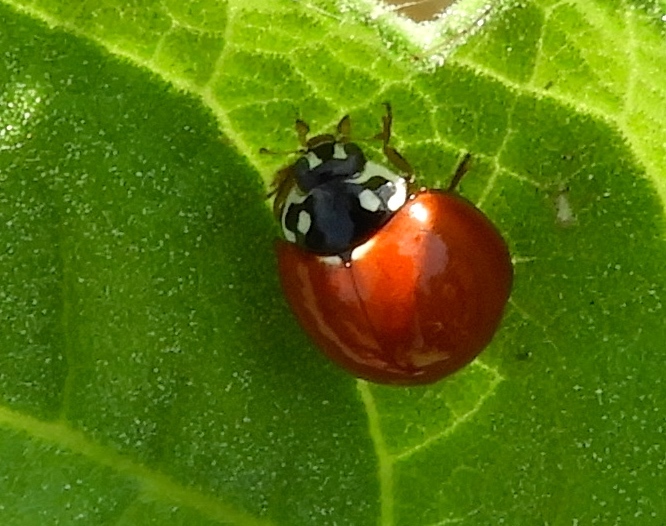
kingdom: Animalia
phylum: Arthropoda
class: Insecta
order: Coleoptera
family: Coccinellidae
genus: Cycloneda
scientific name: Cycloneda sanguinea
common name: Ladybird beetle
